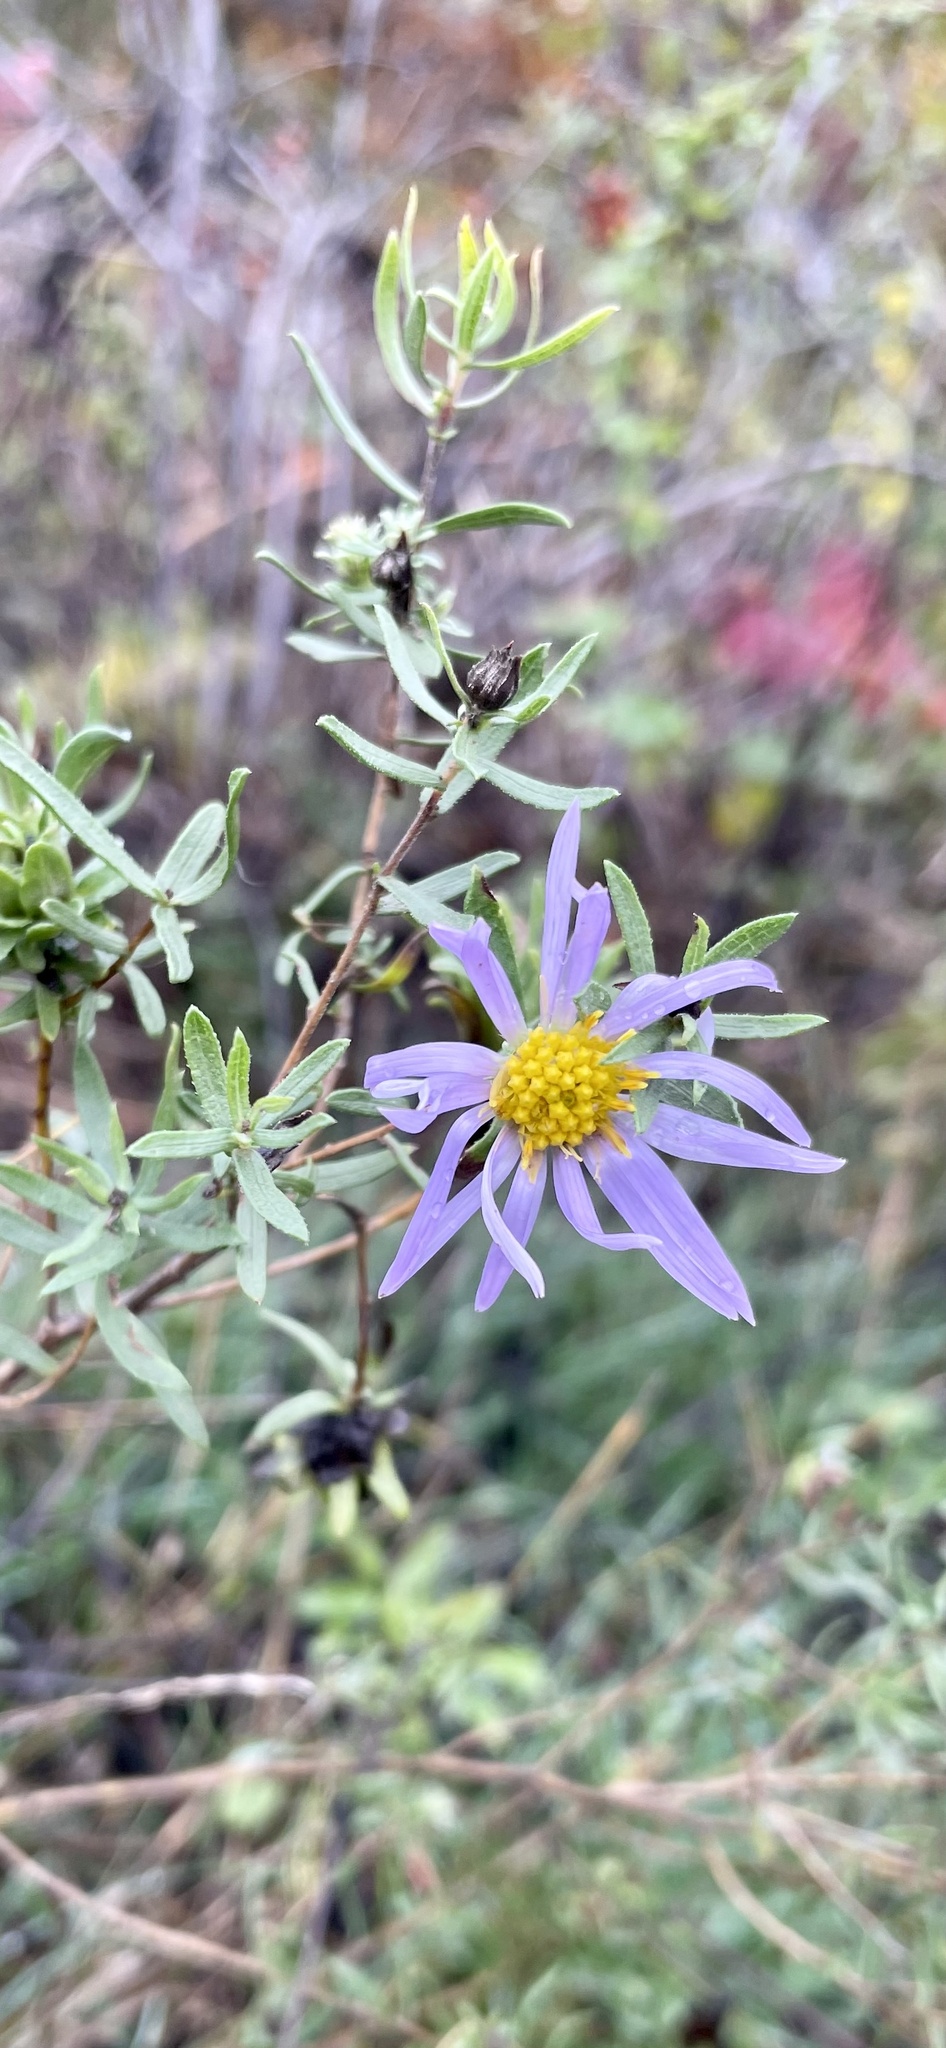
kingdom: Plantae
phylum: Tracheophyta
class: Magnoliopsida
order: Asterales
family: Asteraceae
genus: Symphyotrichum
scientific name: Symphyotrichum oblongifolium
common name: Aromatic aster
